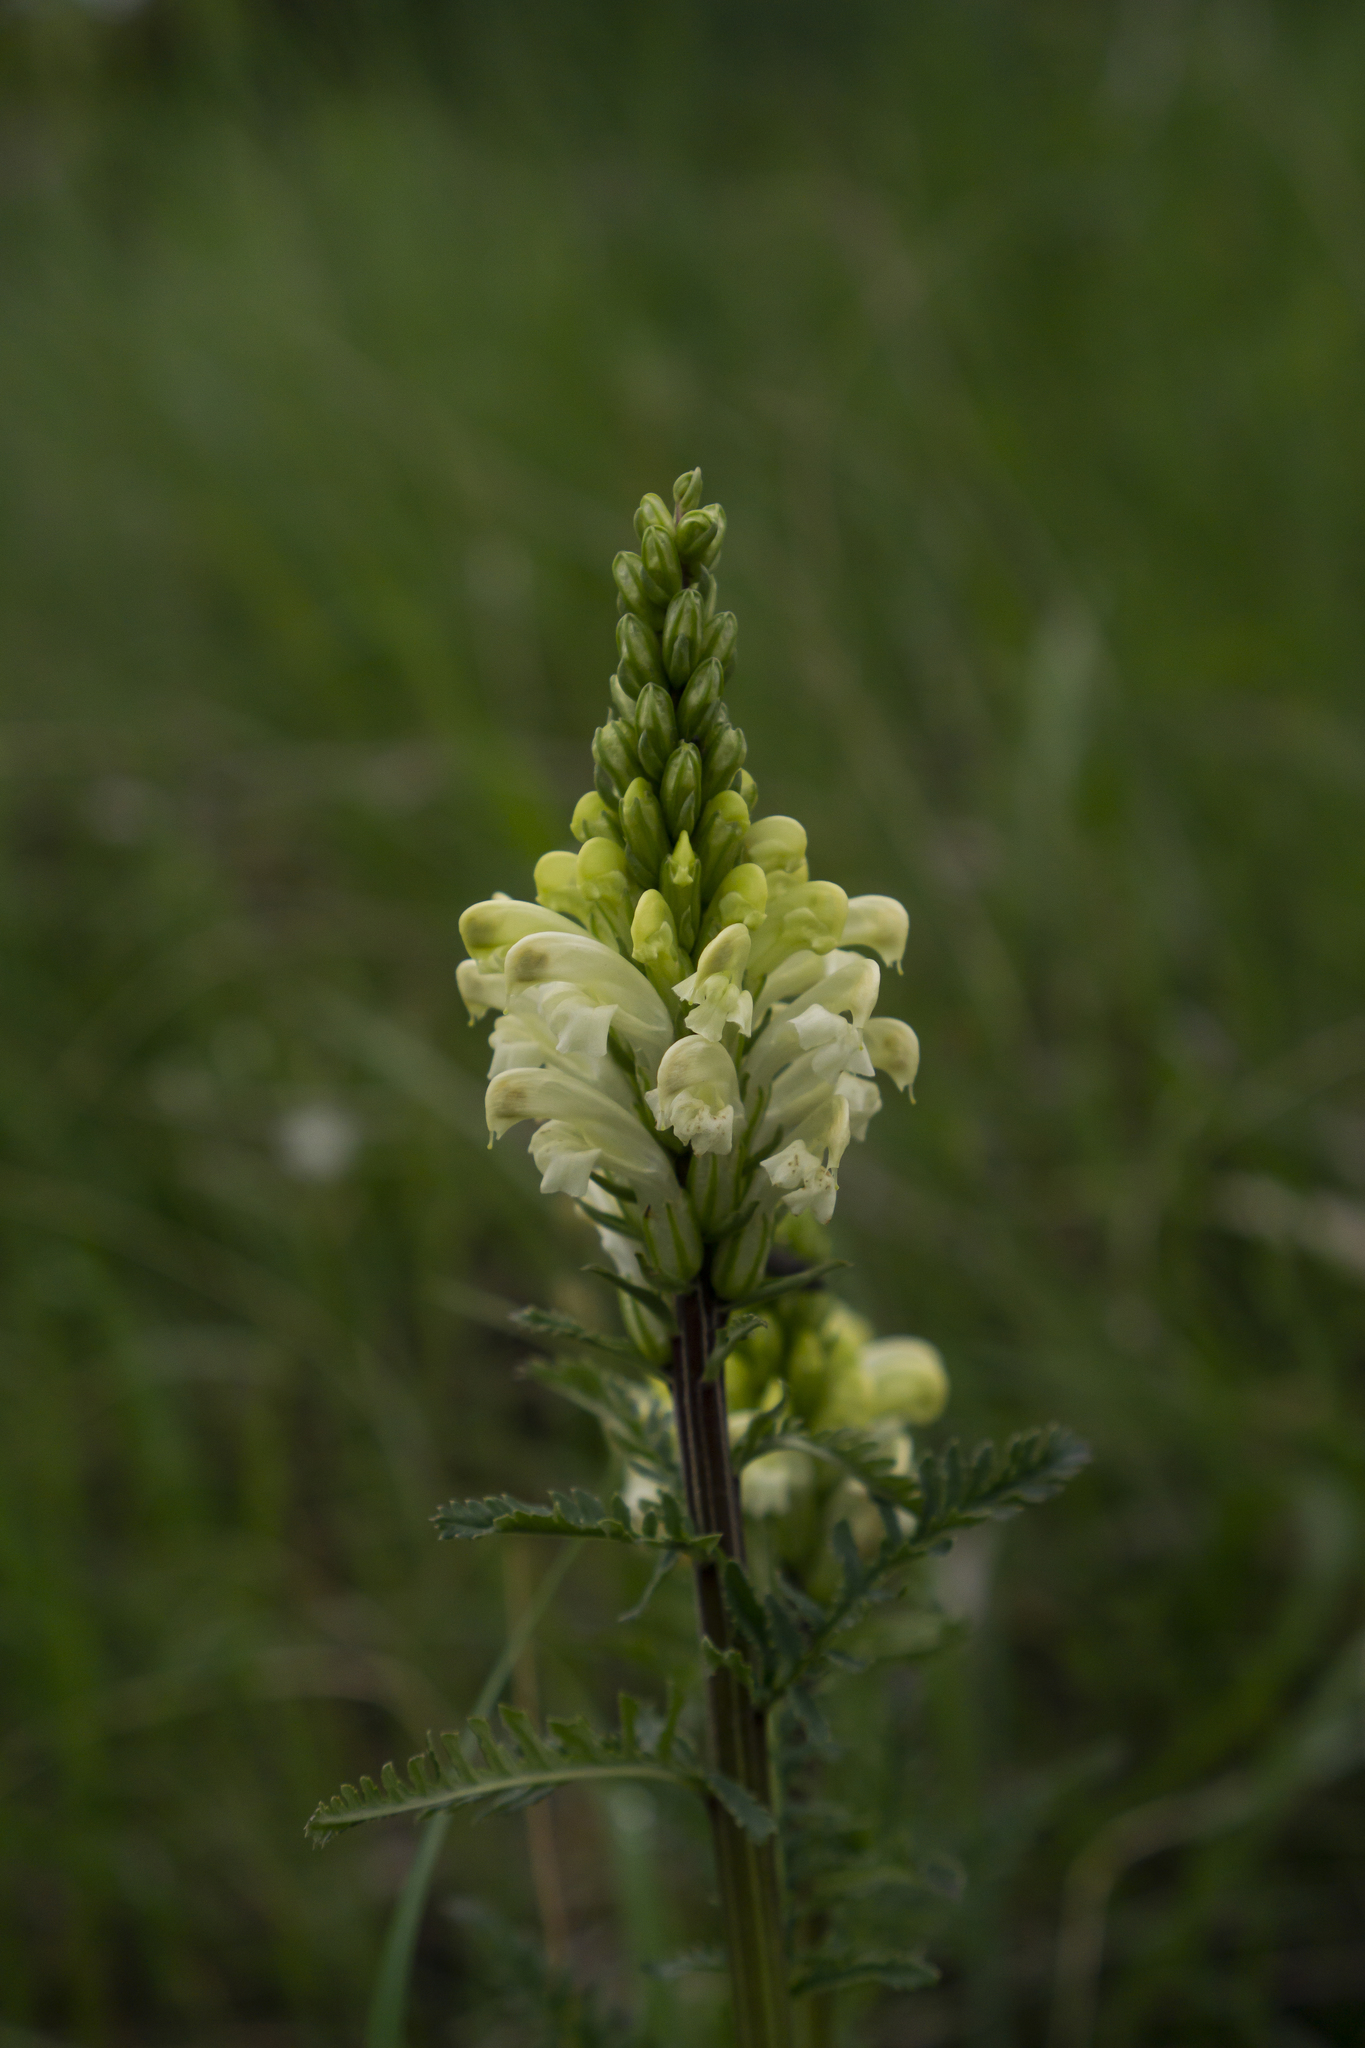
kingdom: Plantae
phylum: Tracheophyta
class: Magnoliopsida
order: Lamiales
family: Orobanchaceae
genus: Pedicularis
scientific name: Pedicularis comosa
